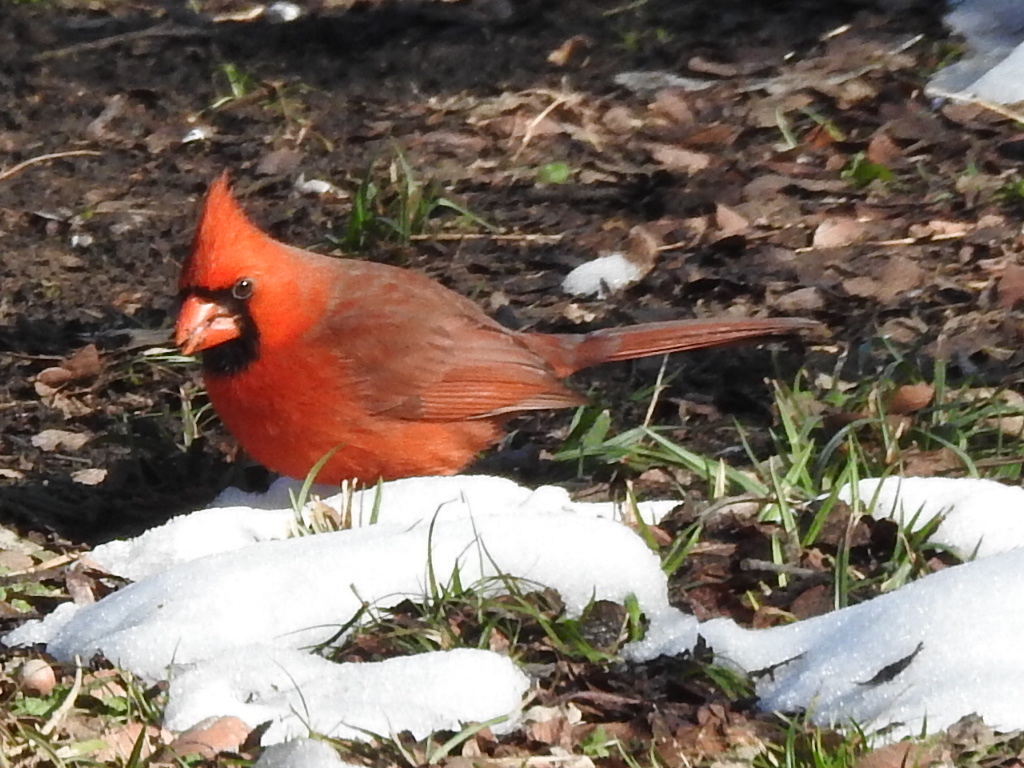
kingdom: Animalia
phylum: Chordata
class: Aves
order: Passeriformes
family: Cardinalidae
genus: Cardinalis
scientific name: Cardinalis cardinalis
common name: Northern cardinal
